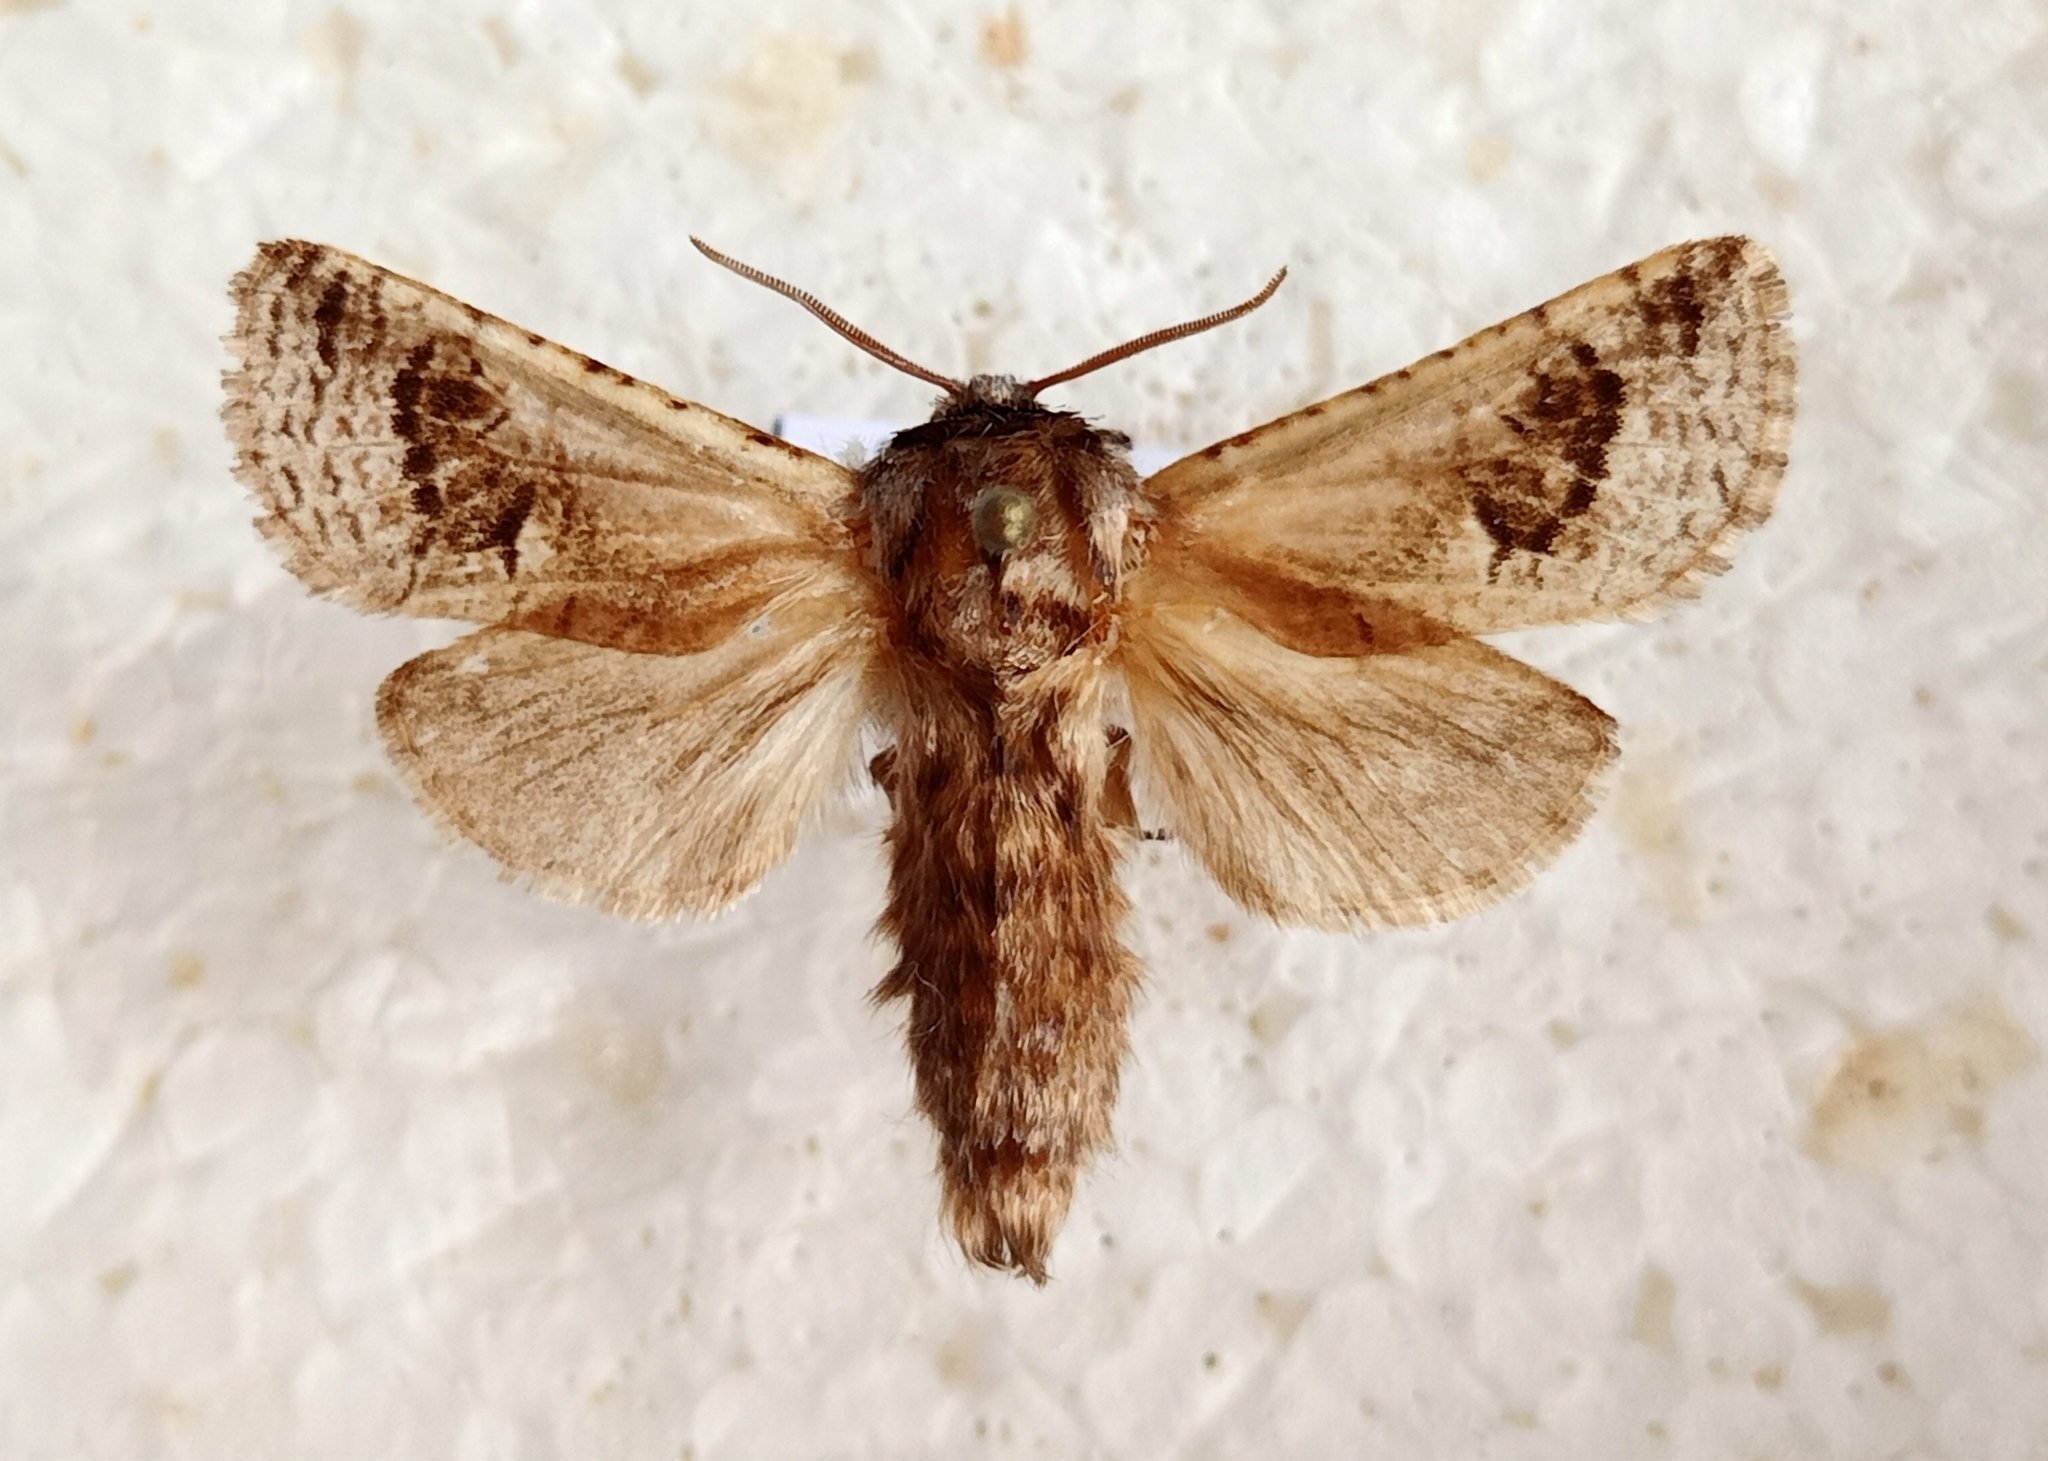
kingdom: Animalia
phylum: Arthropoda
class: Insecta
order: Lepidoptera
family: Cossidae
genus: Parahypopta
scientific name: Parahypopta caestrum
